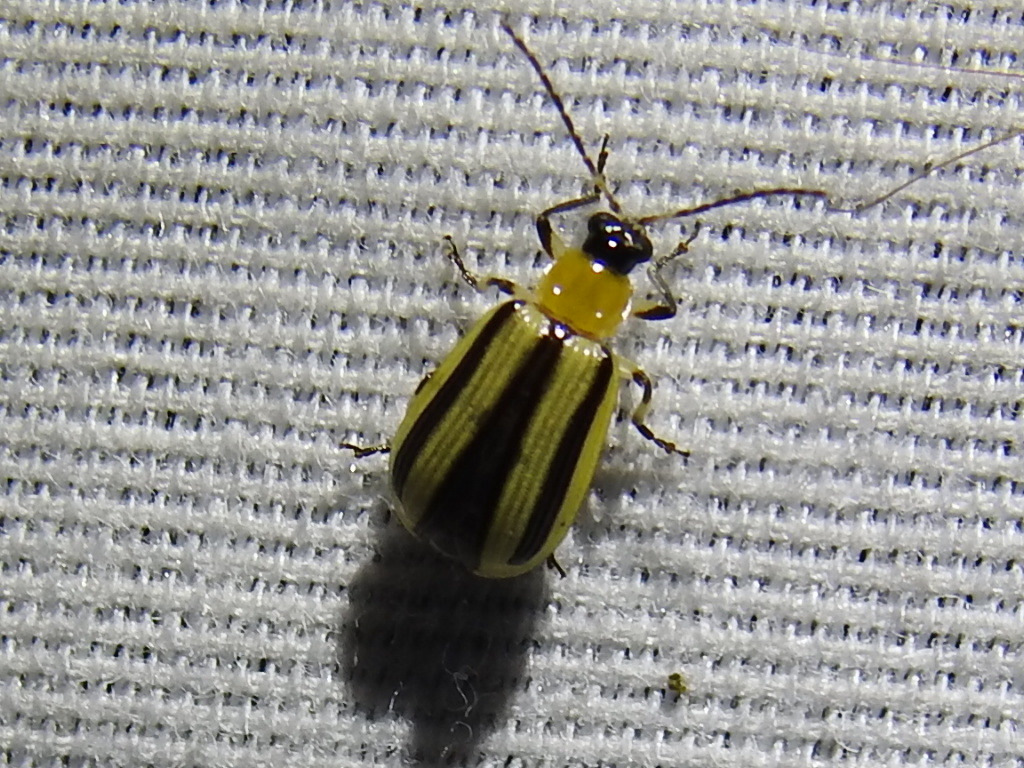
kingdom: Animalia
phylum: Arthropoda
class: Insecta
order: Coleoptera
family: Chrysomelidae
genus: Acalymma
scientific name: Acalymma vittatum
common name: Striped cucumber beetle
